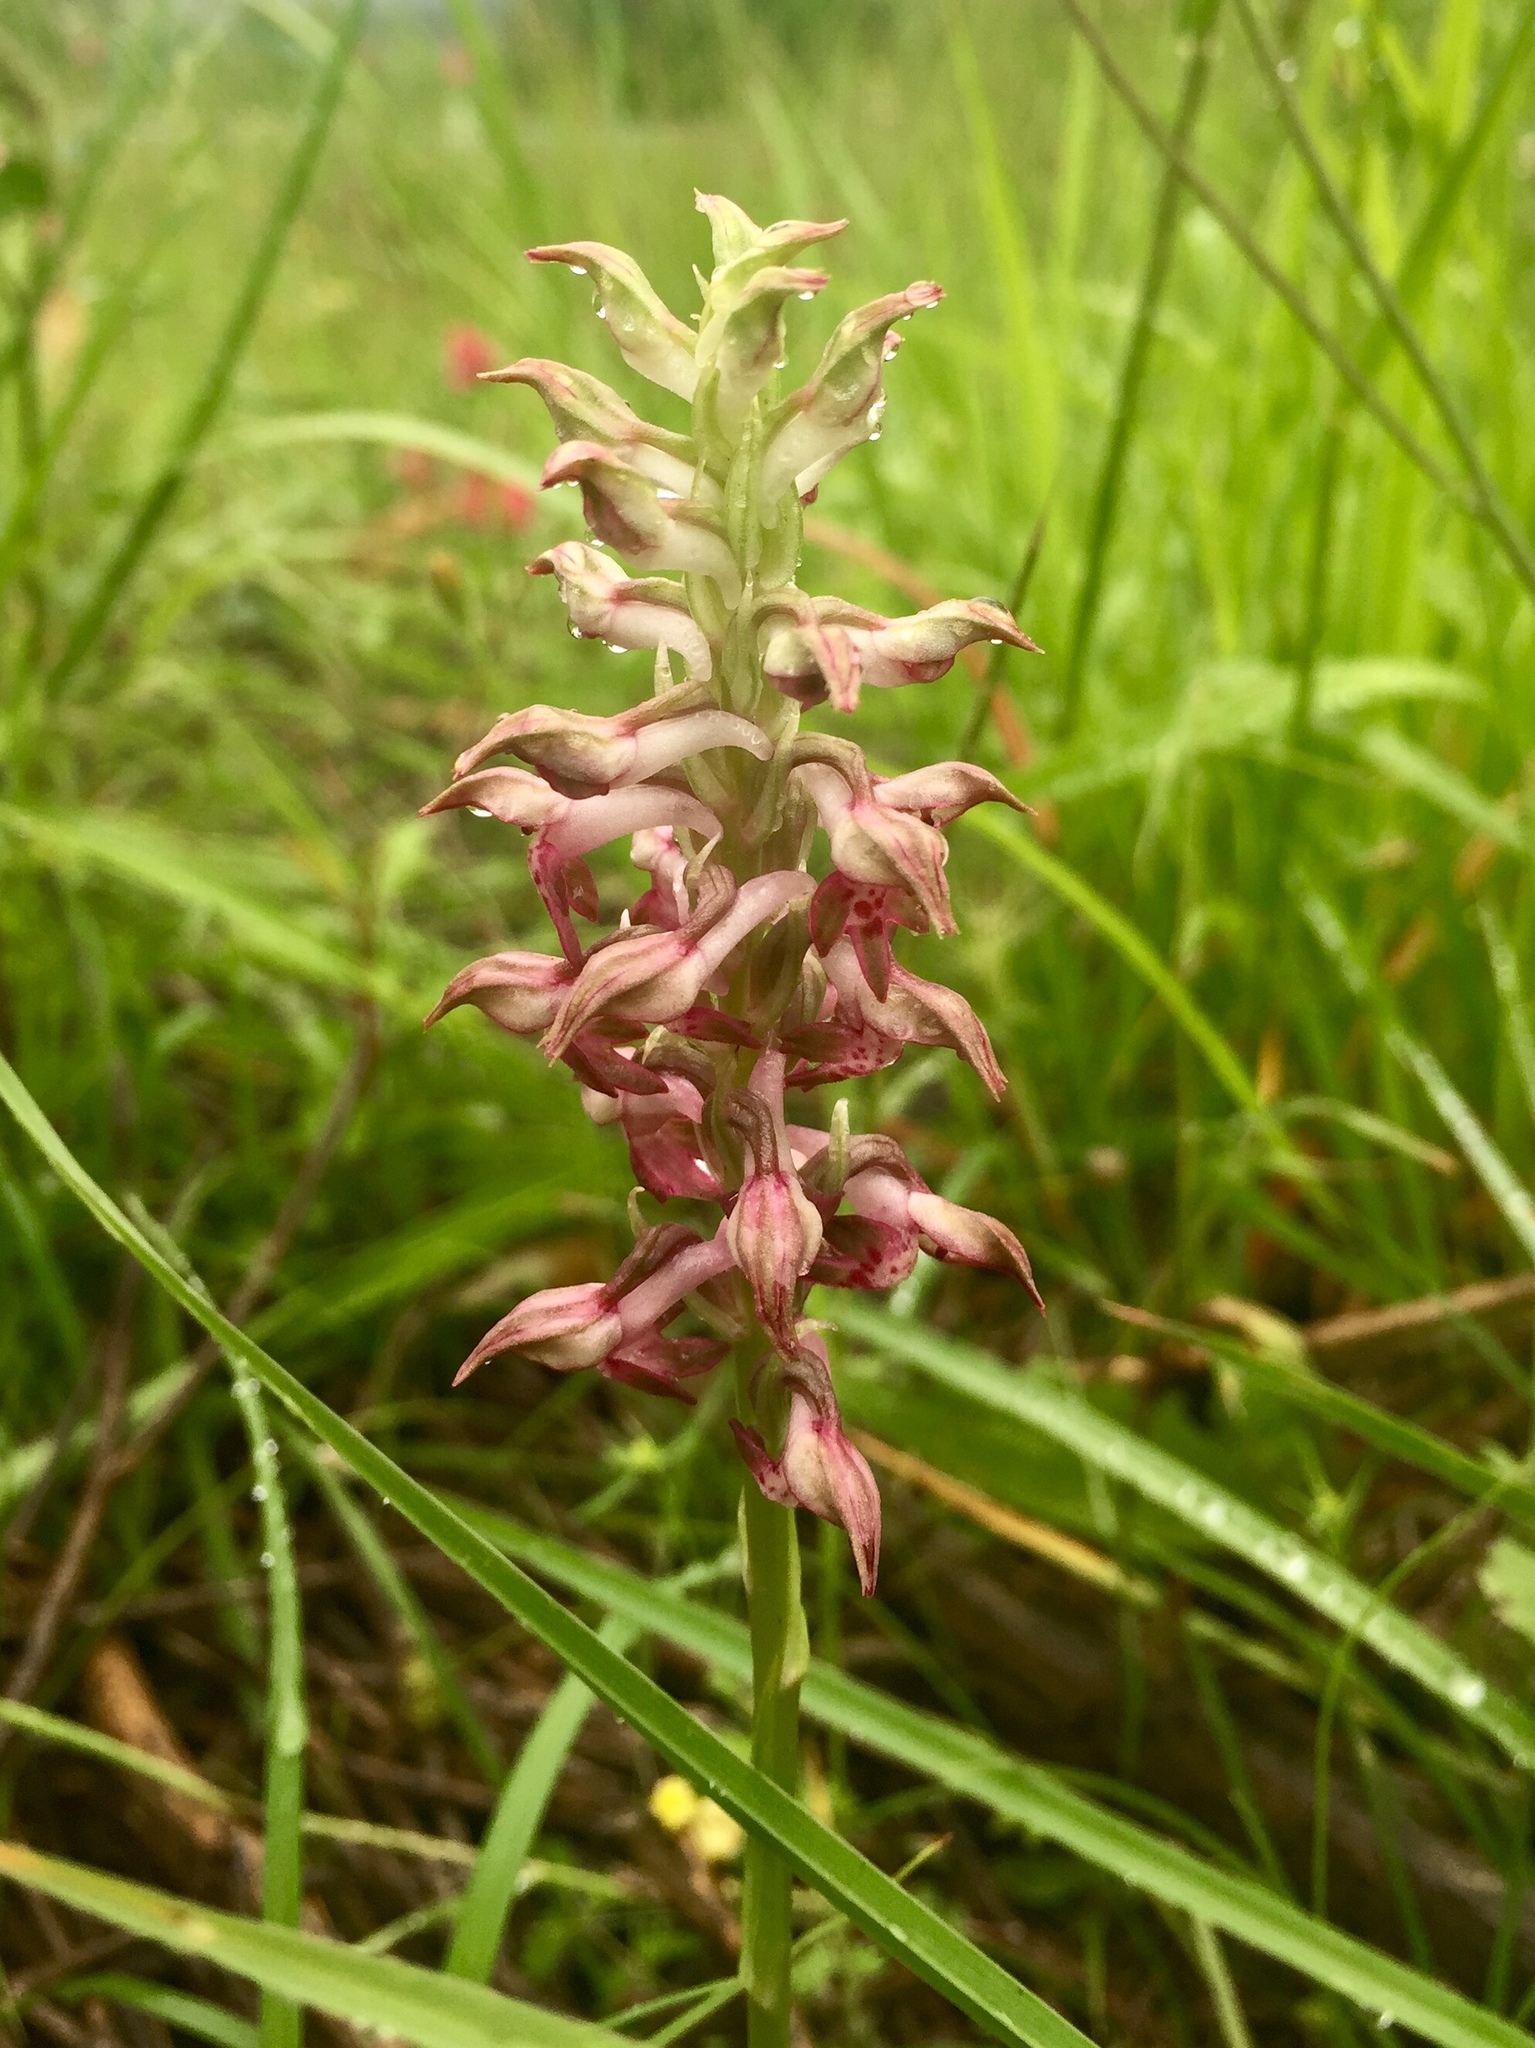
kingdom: Plantae
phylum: Tracheophyta
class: Liliopsida
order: Asparagales
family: Orchidaceae
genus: Anacamptis
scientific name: Anacamptis coriophora
